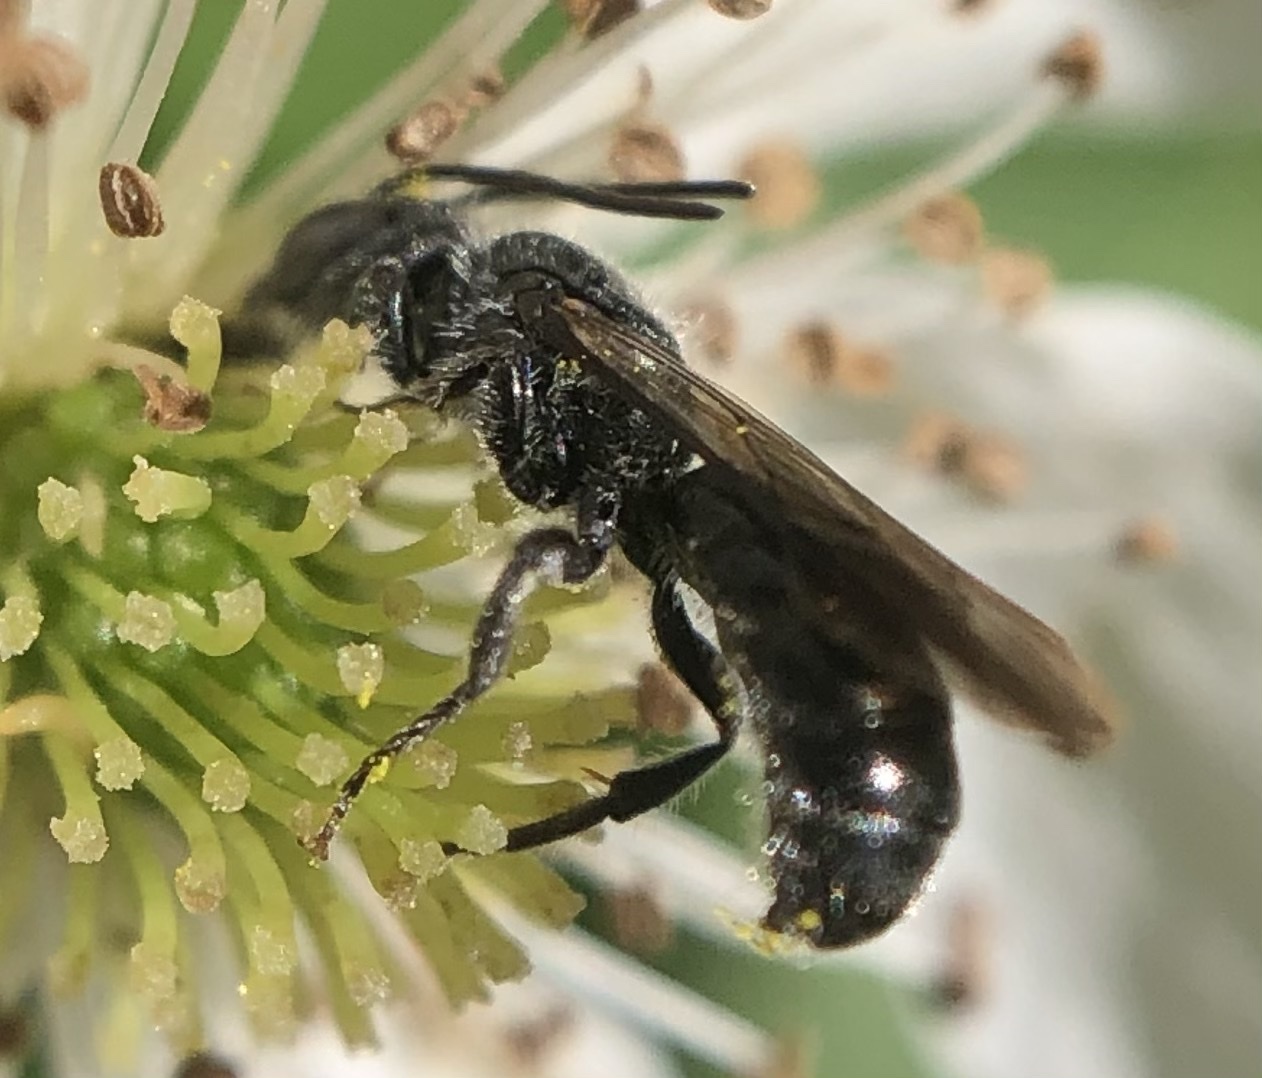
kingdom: Animalia
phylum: Arthropoda
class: Insecta
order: Hymenoptera
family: Megachilidae
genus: Chelostoma
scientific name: Chelostoma philadelphi
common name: Mock-orange scissor bee
